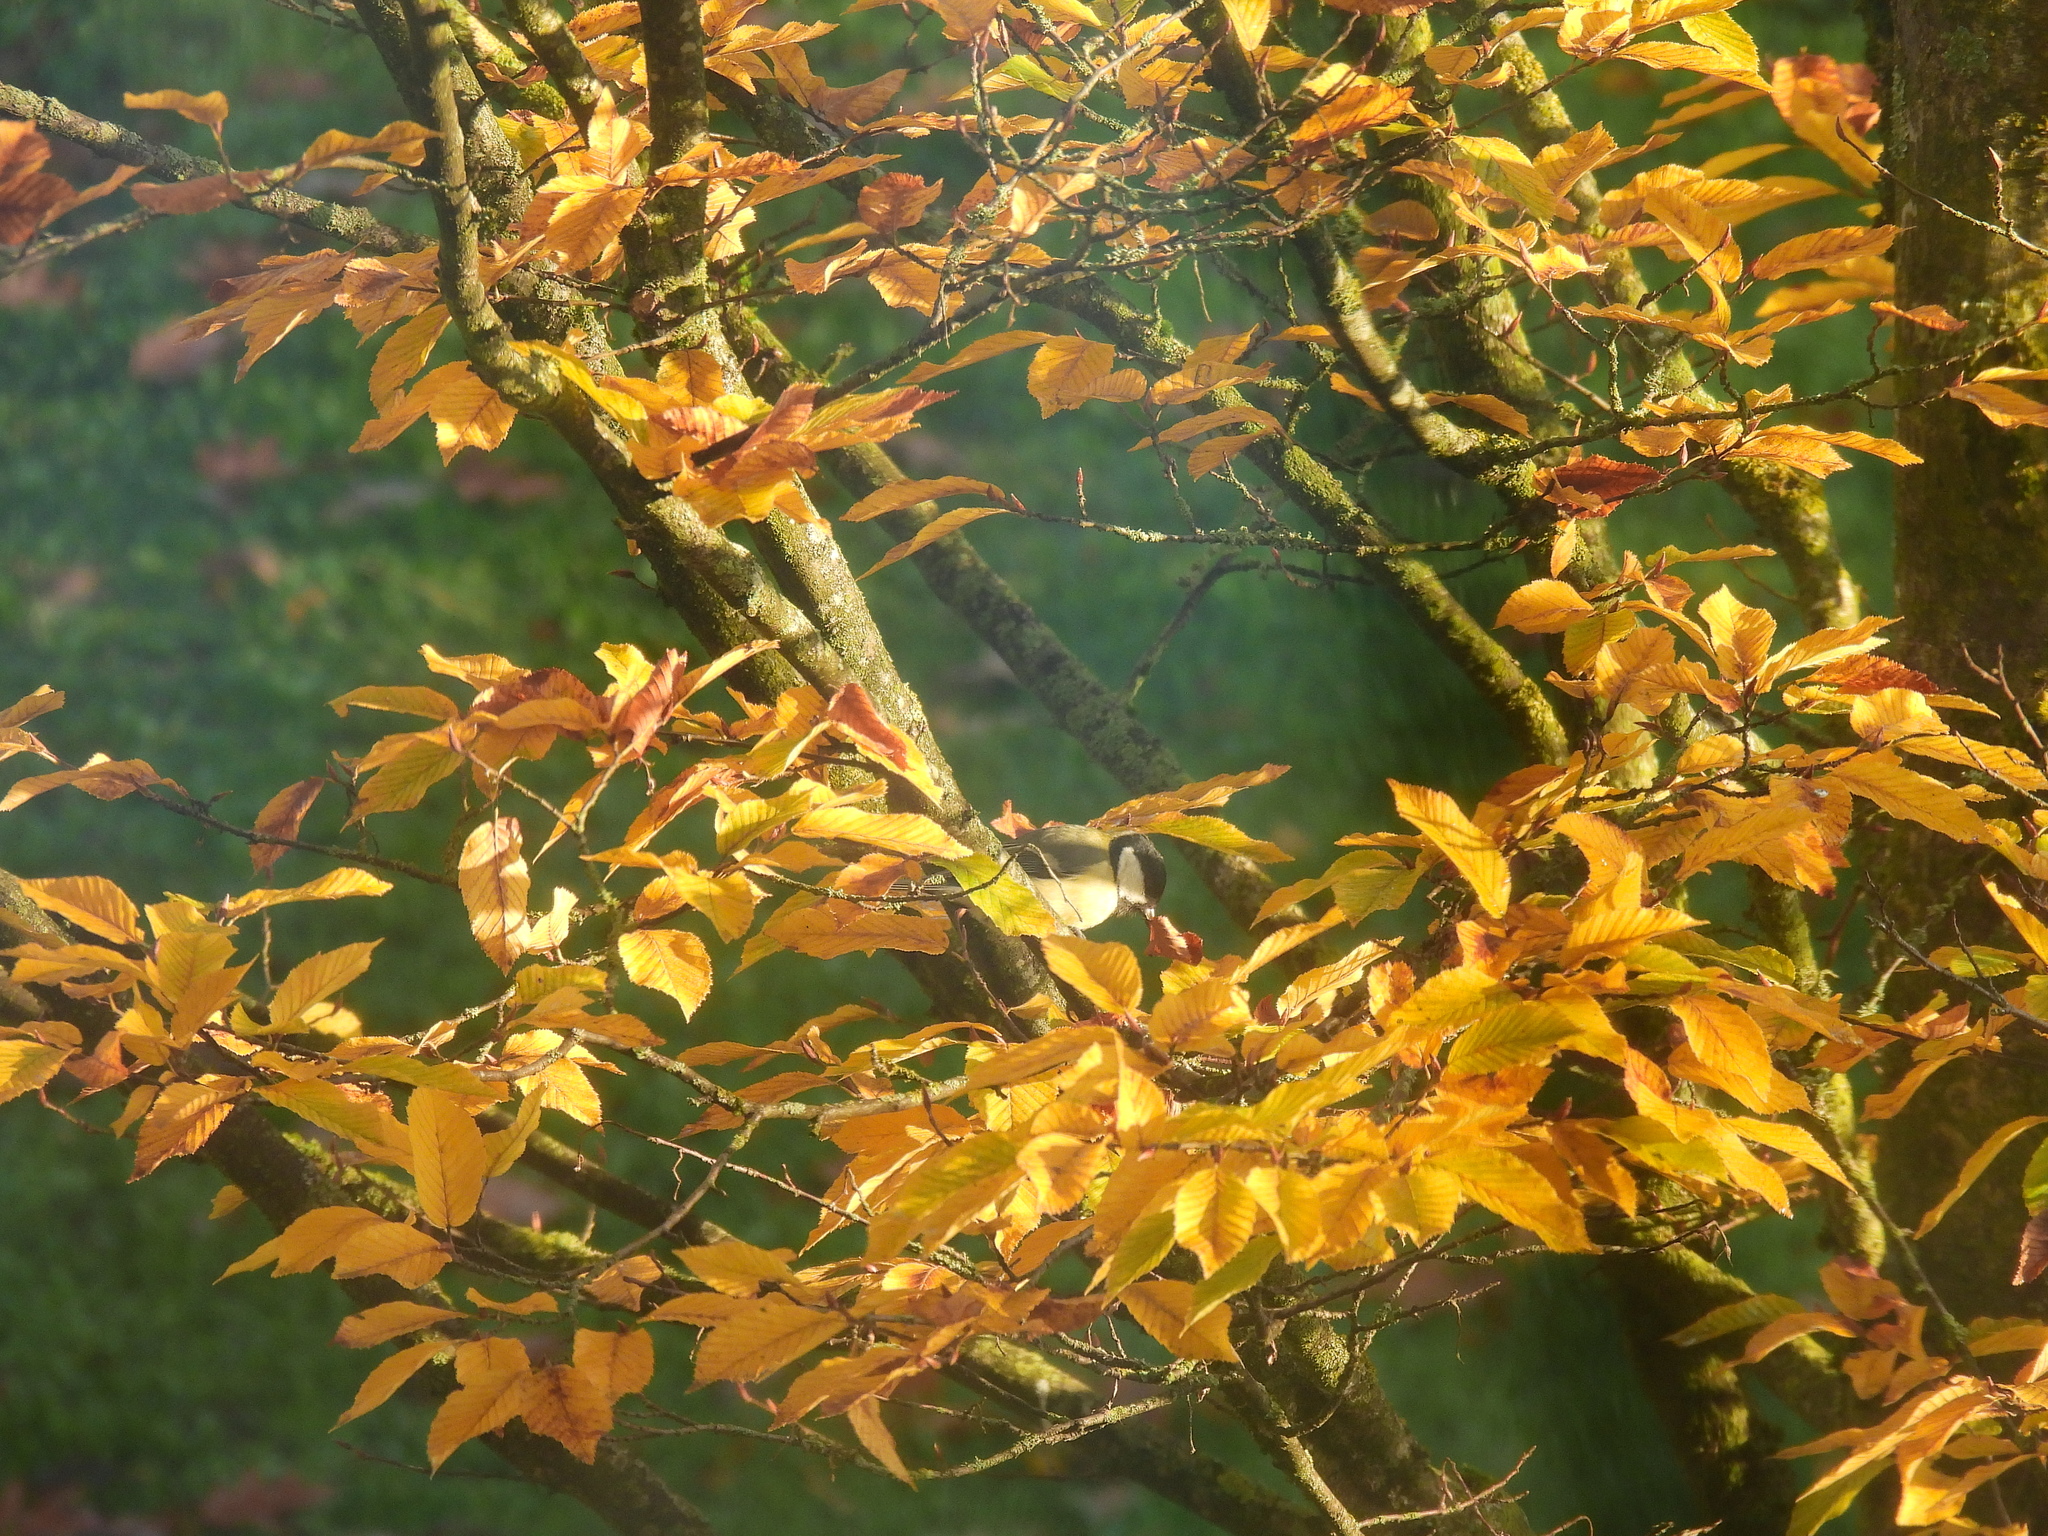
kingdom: Animalia
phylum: Chordata
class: Aves
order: Passeriformes
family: Paridae
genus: Parus
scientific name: Parus major
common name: Great tit
